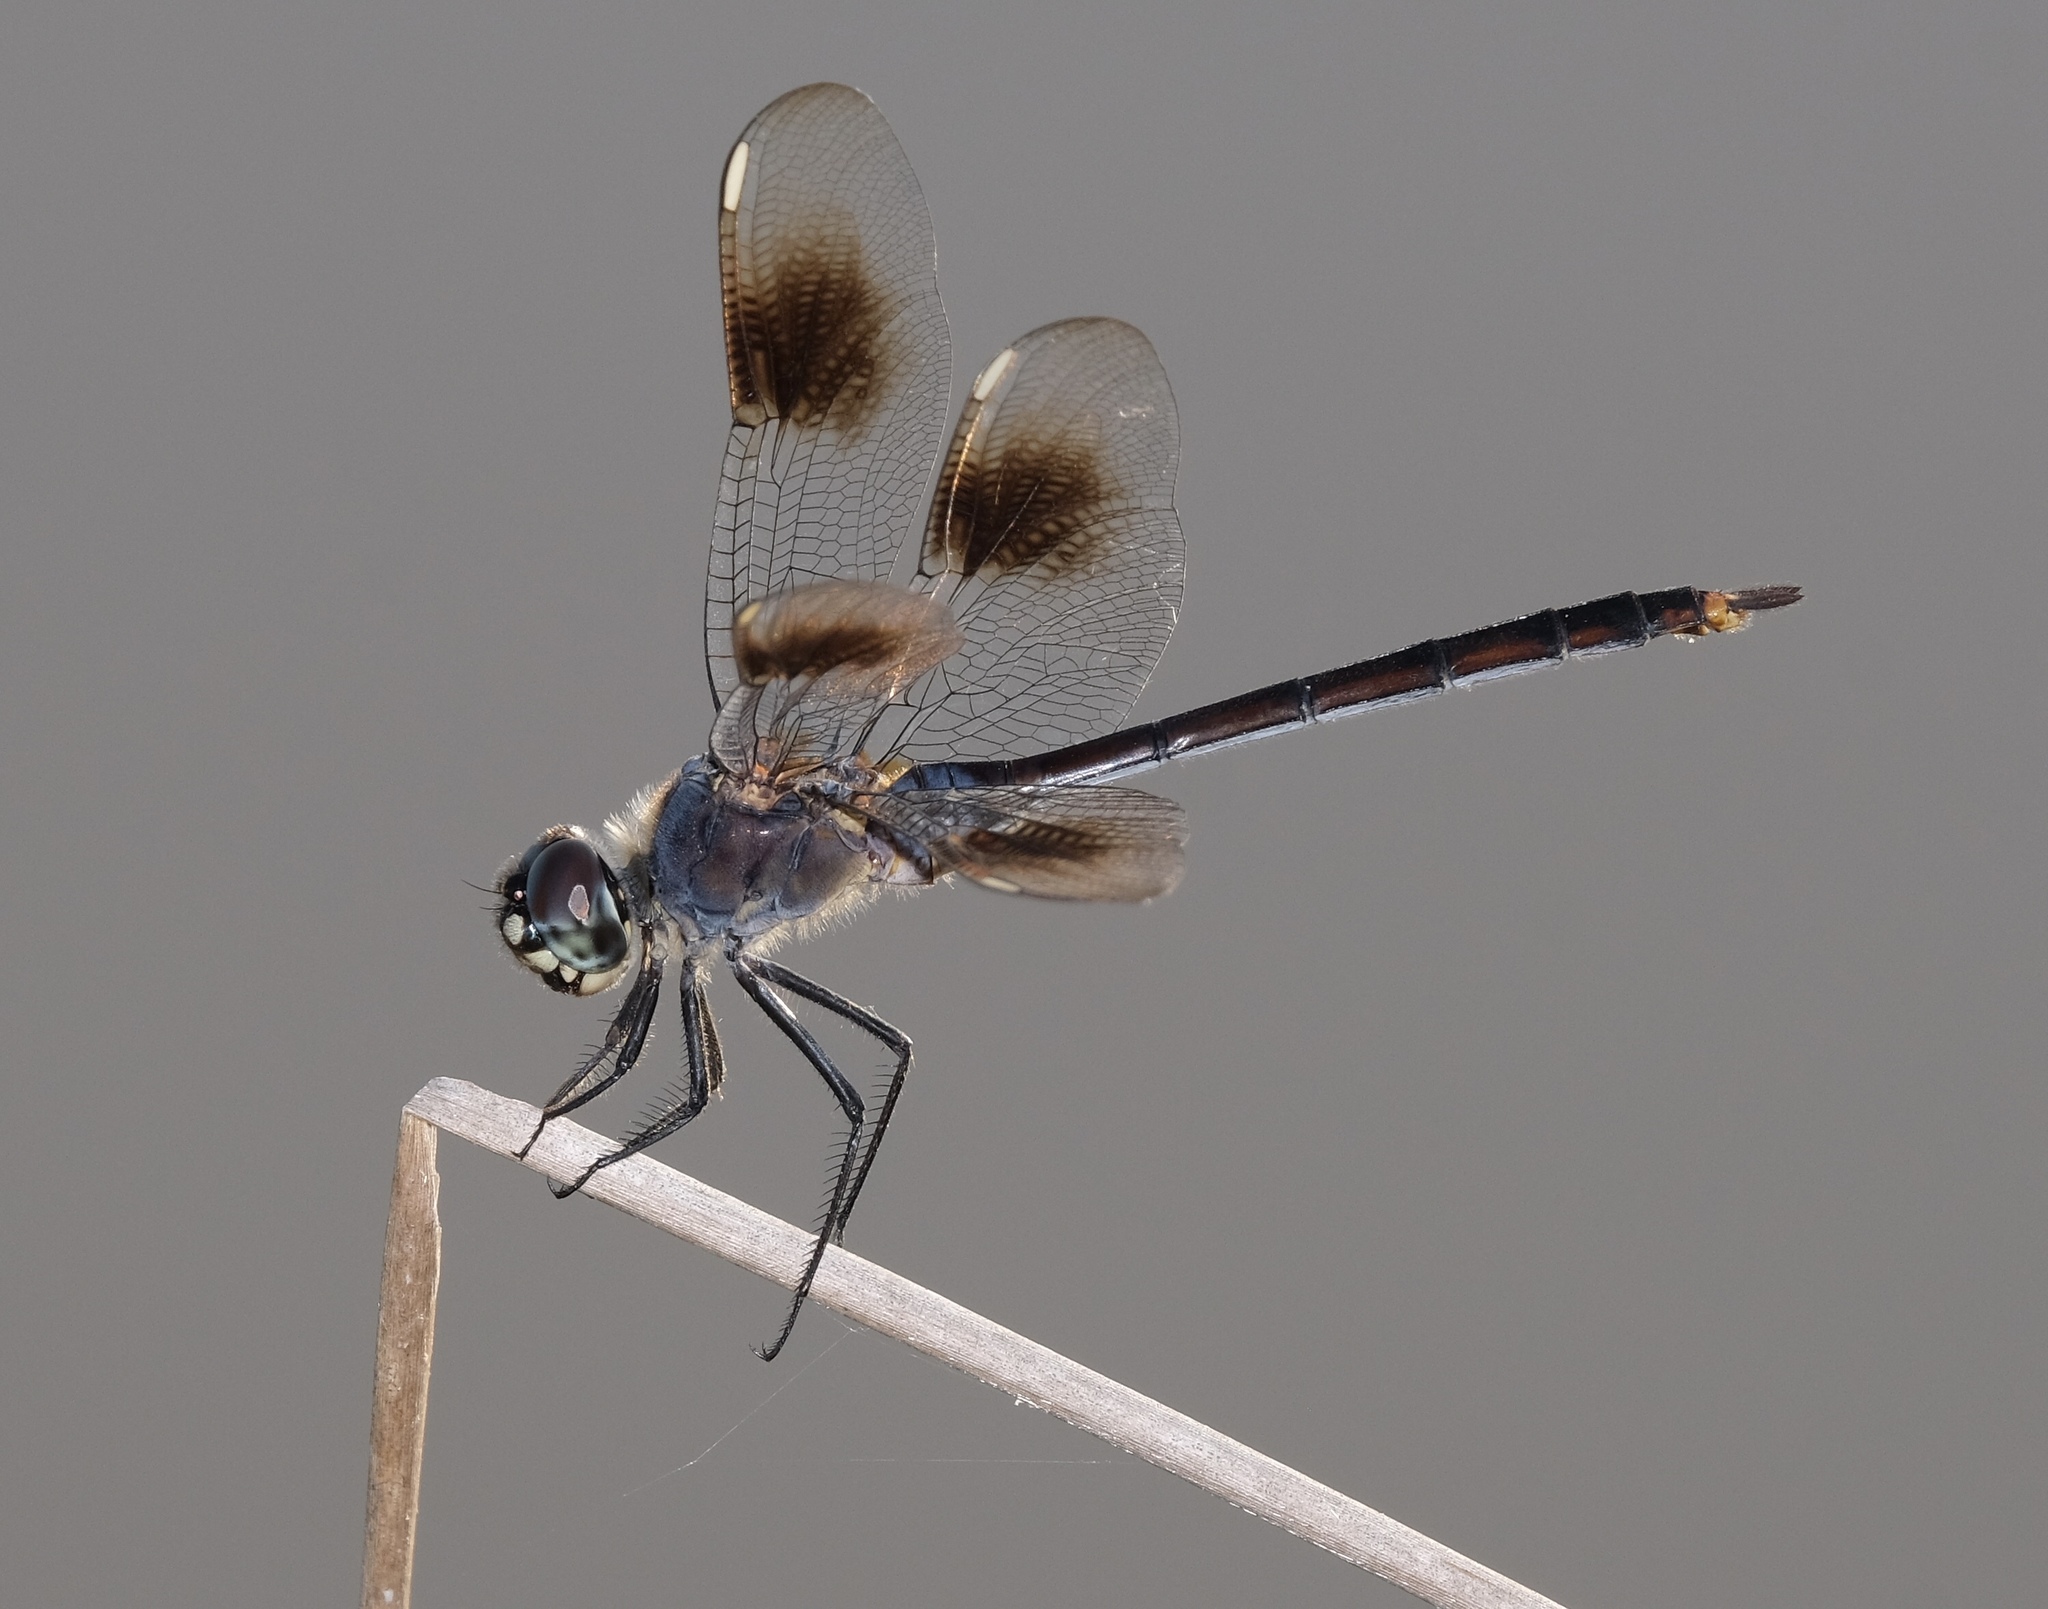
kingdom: Animalia
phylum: Arthropoda
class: Insecta
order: Odonata
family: Libellulidae
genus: Brachymesia
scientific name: Brachymesia gravida
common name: Four-spotted pennant
